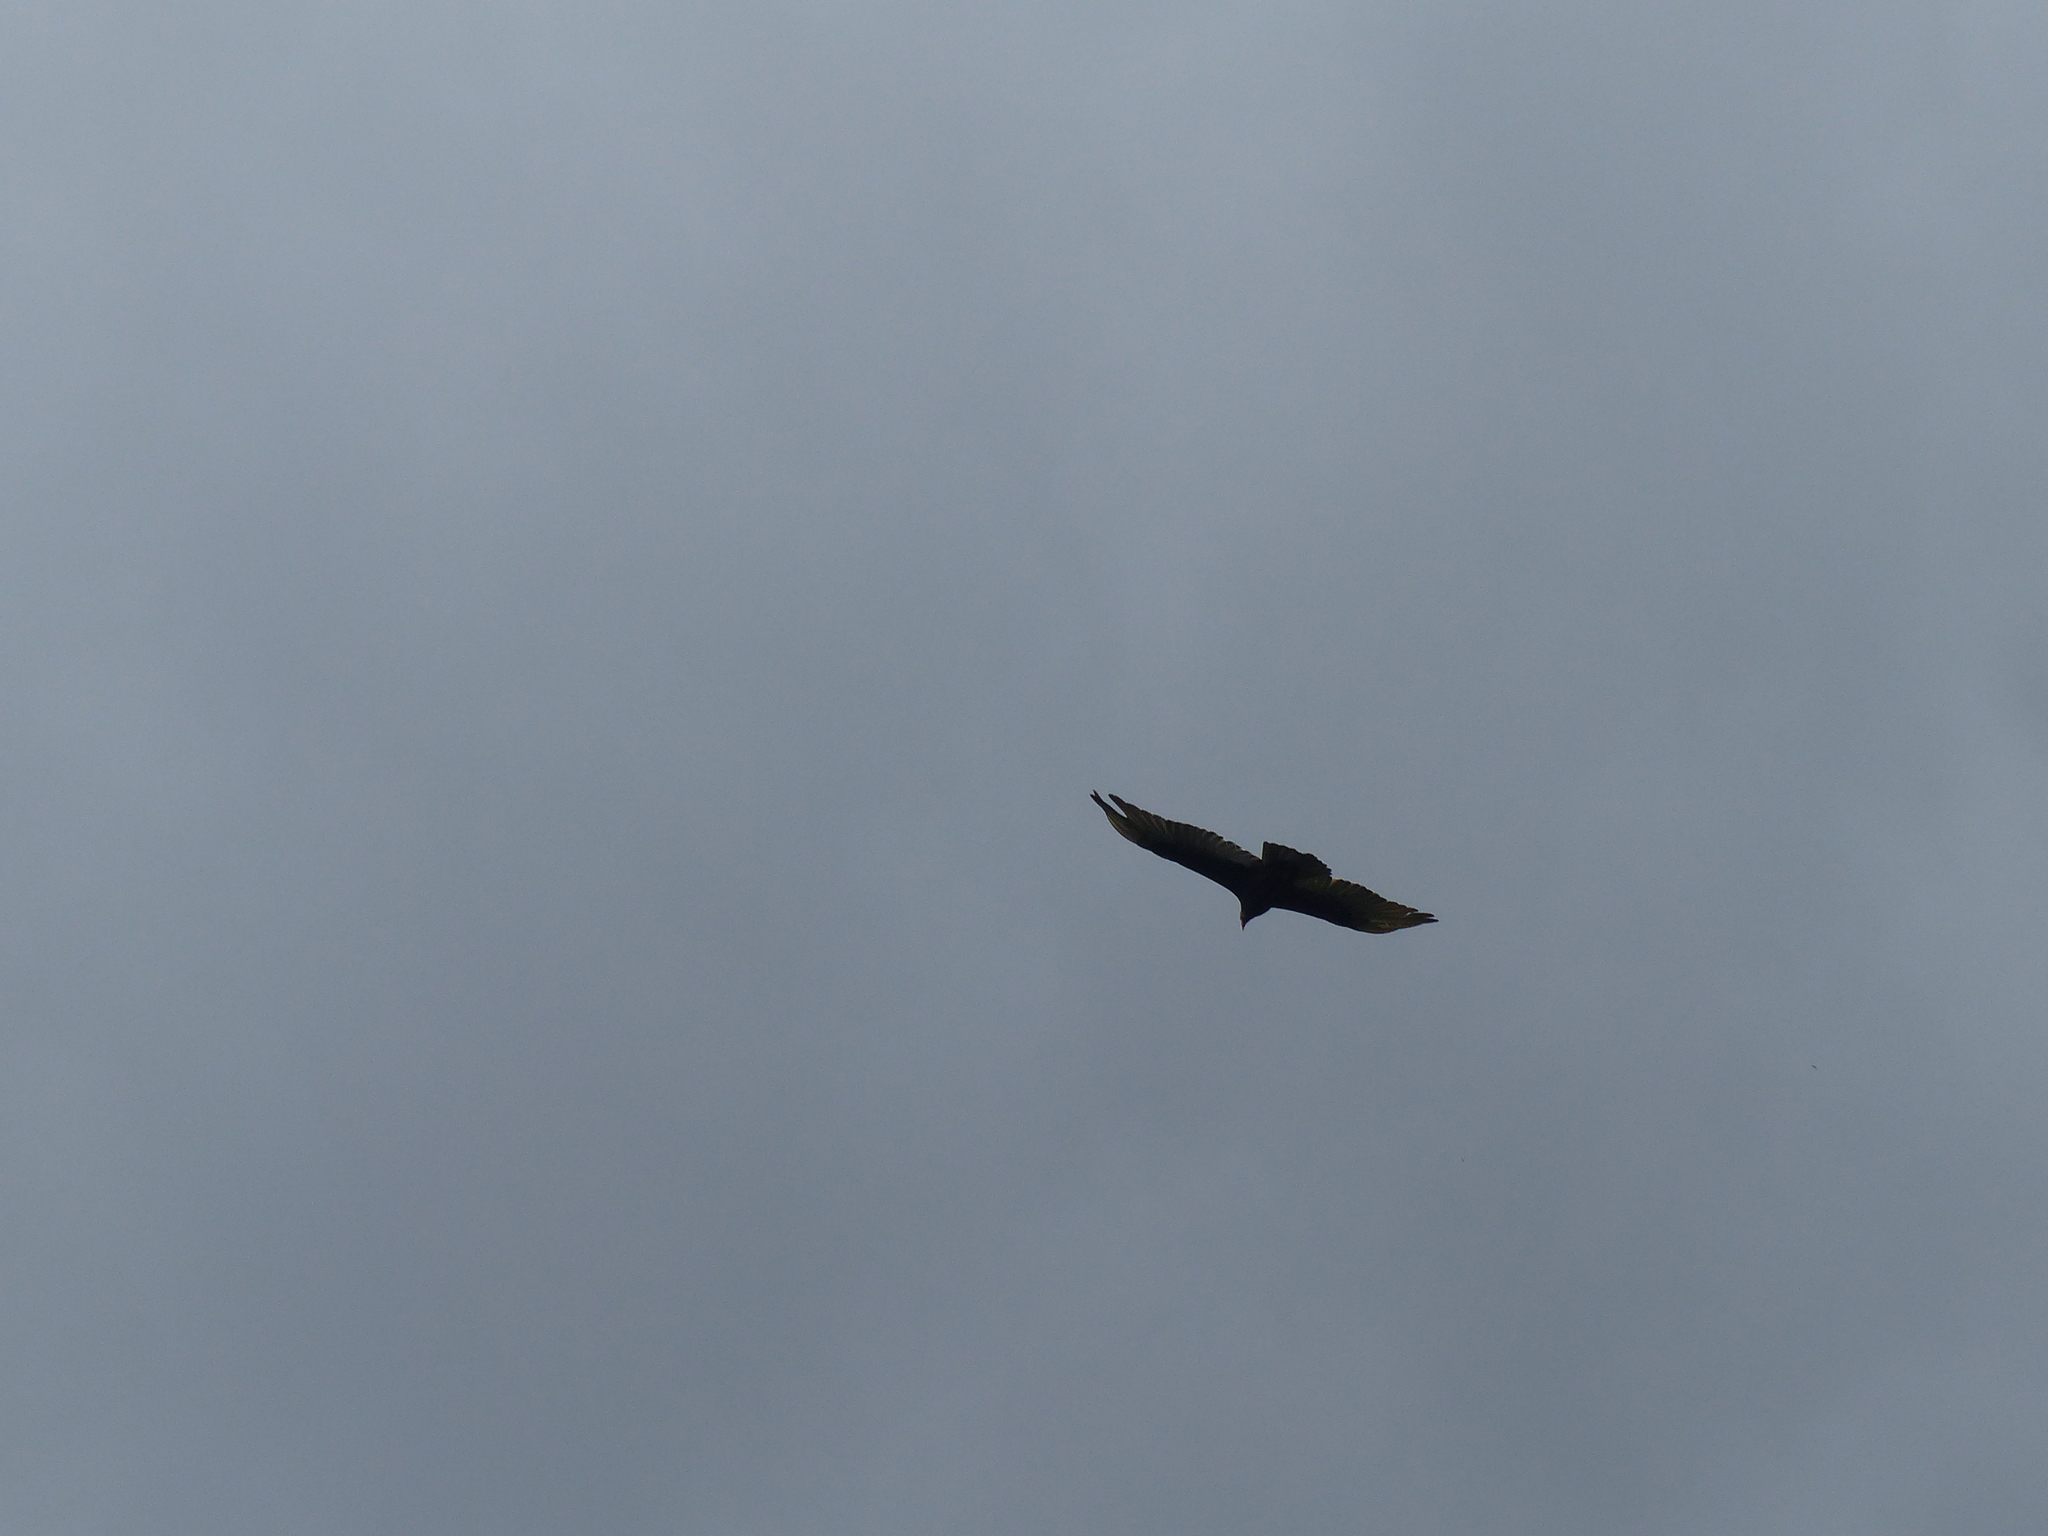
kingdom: Animalia
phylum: Chordata
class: Aves
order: Accipitriformes
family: Cathartidae
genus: Cathartes
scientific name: Cathartes aura
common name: Turkey vulture
